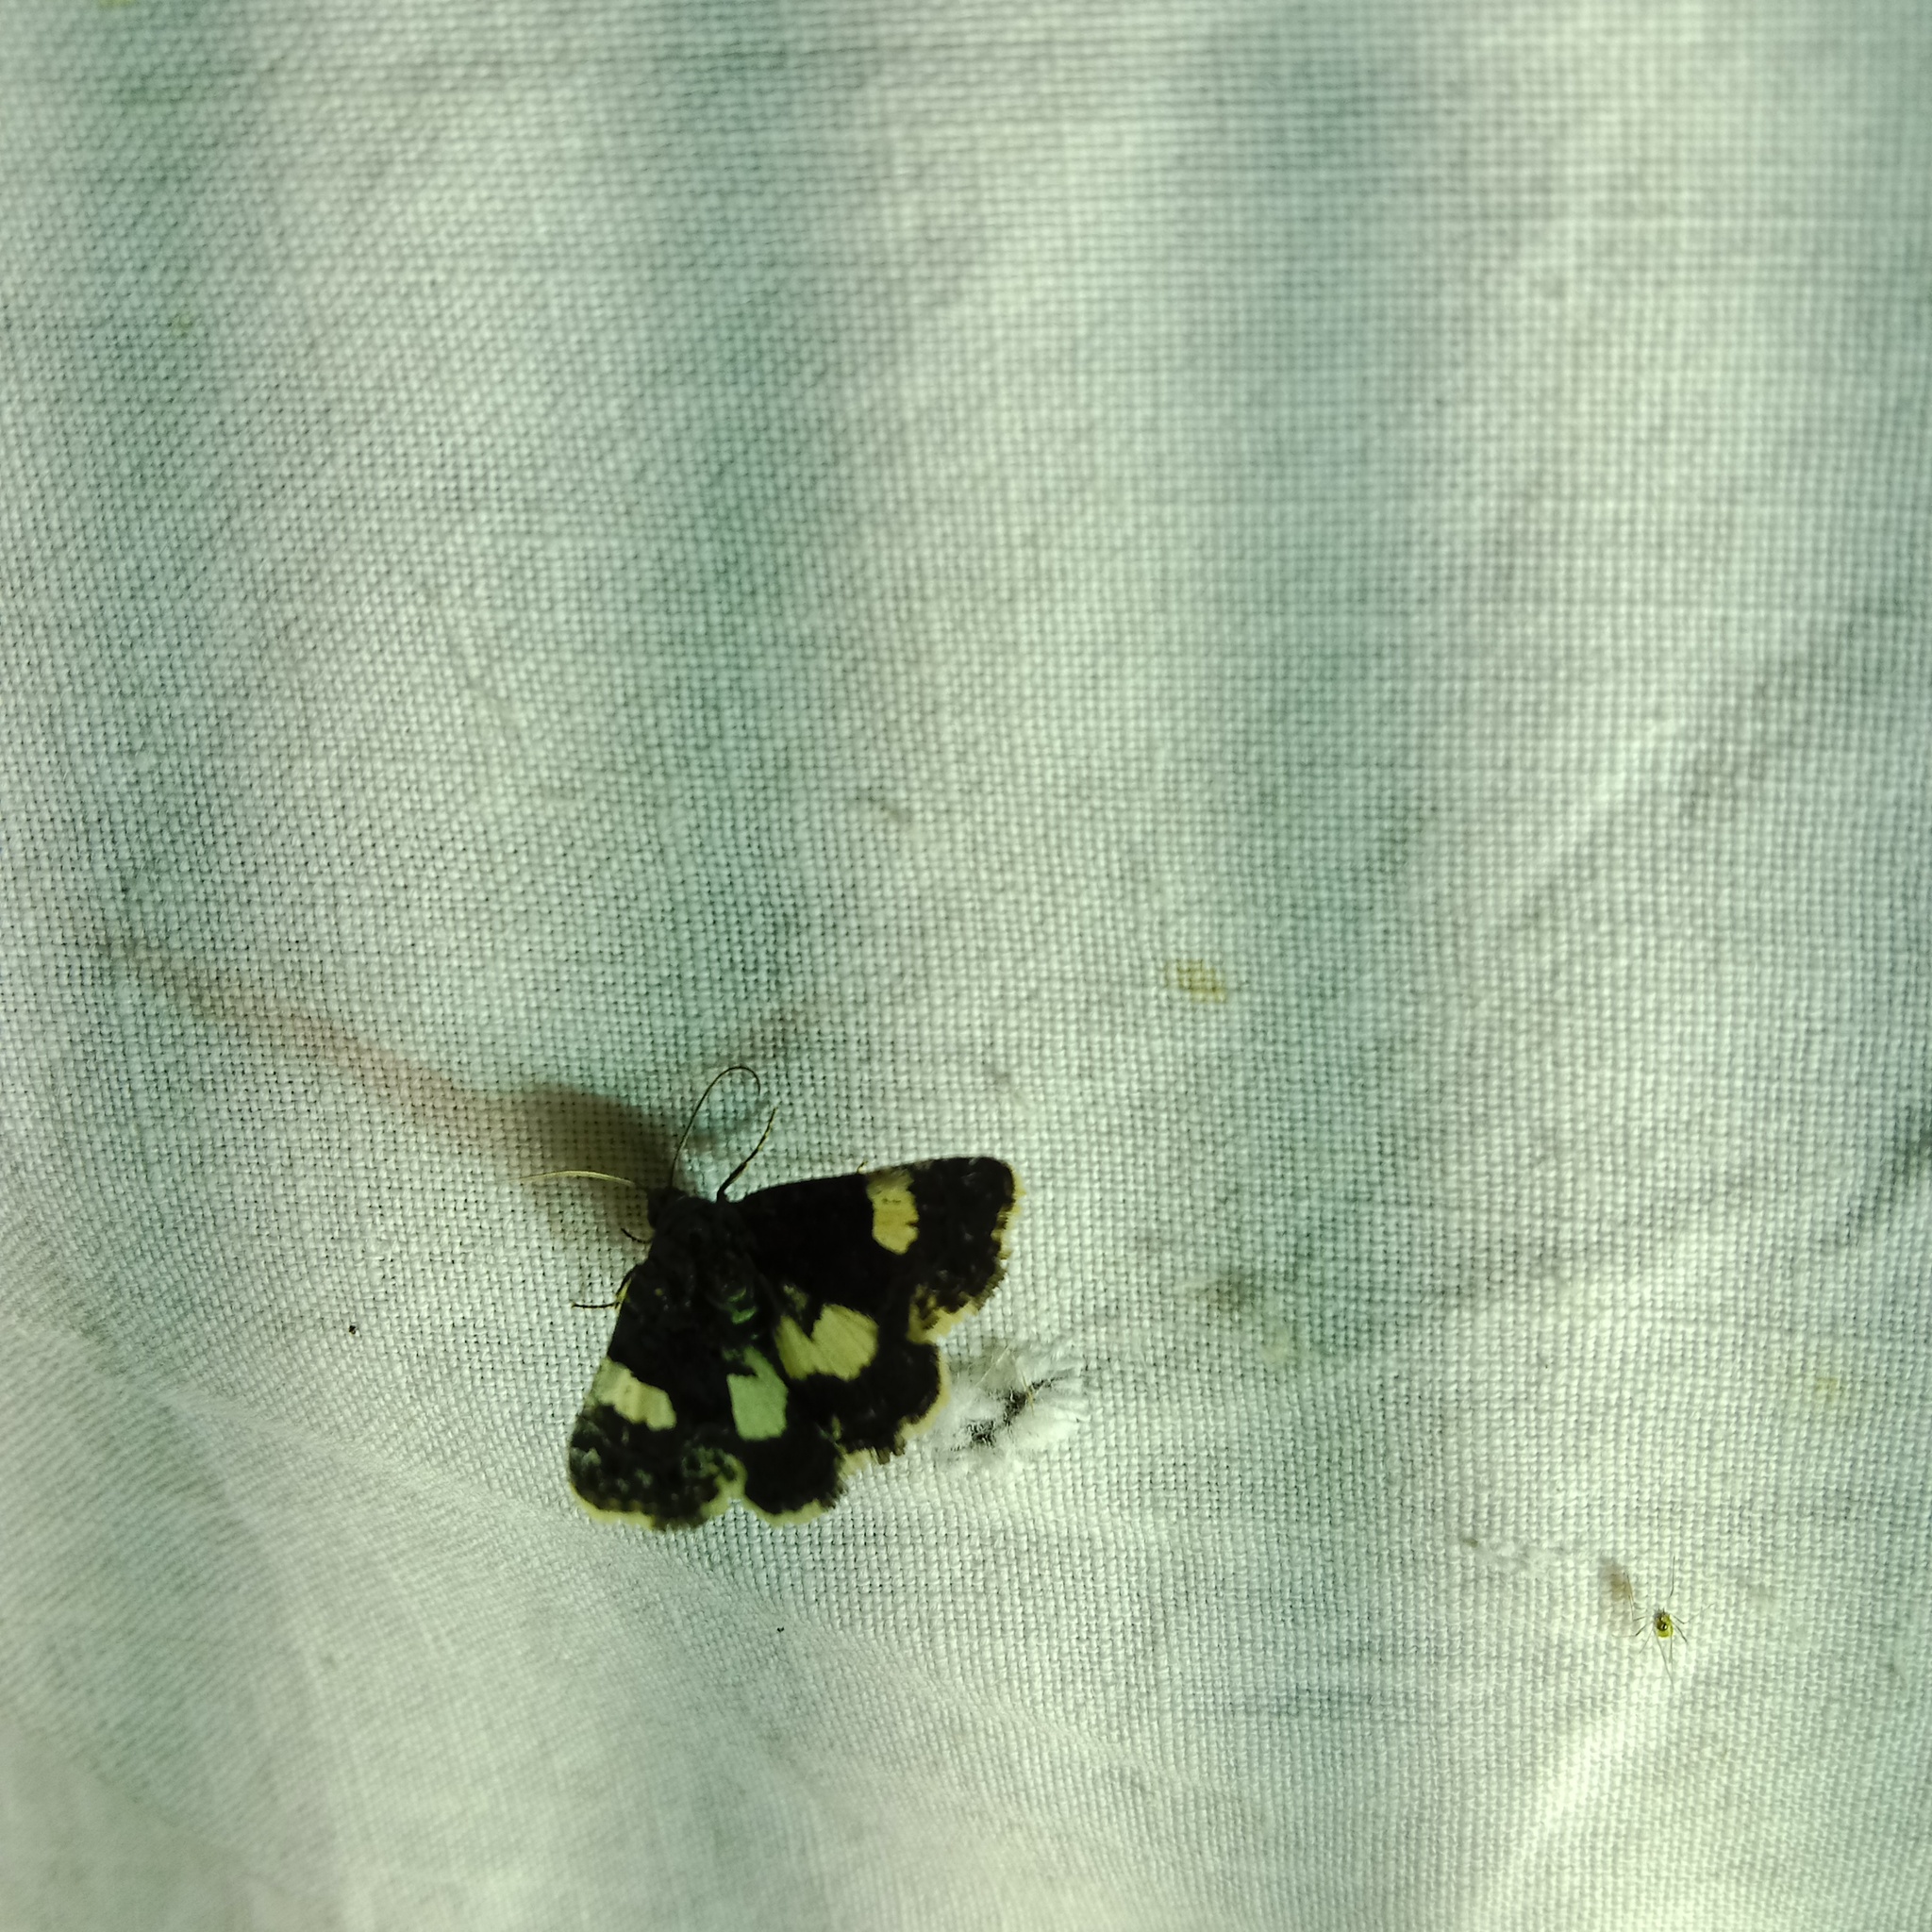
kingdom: Animalia
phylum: Arthropoda
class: Insecta
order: Lepidoptera
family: Erebidae
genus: Tyta
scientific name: Tyta luctuosa
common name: Four-spotted
